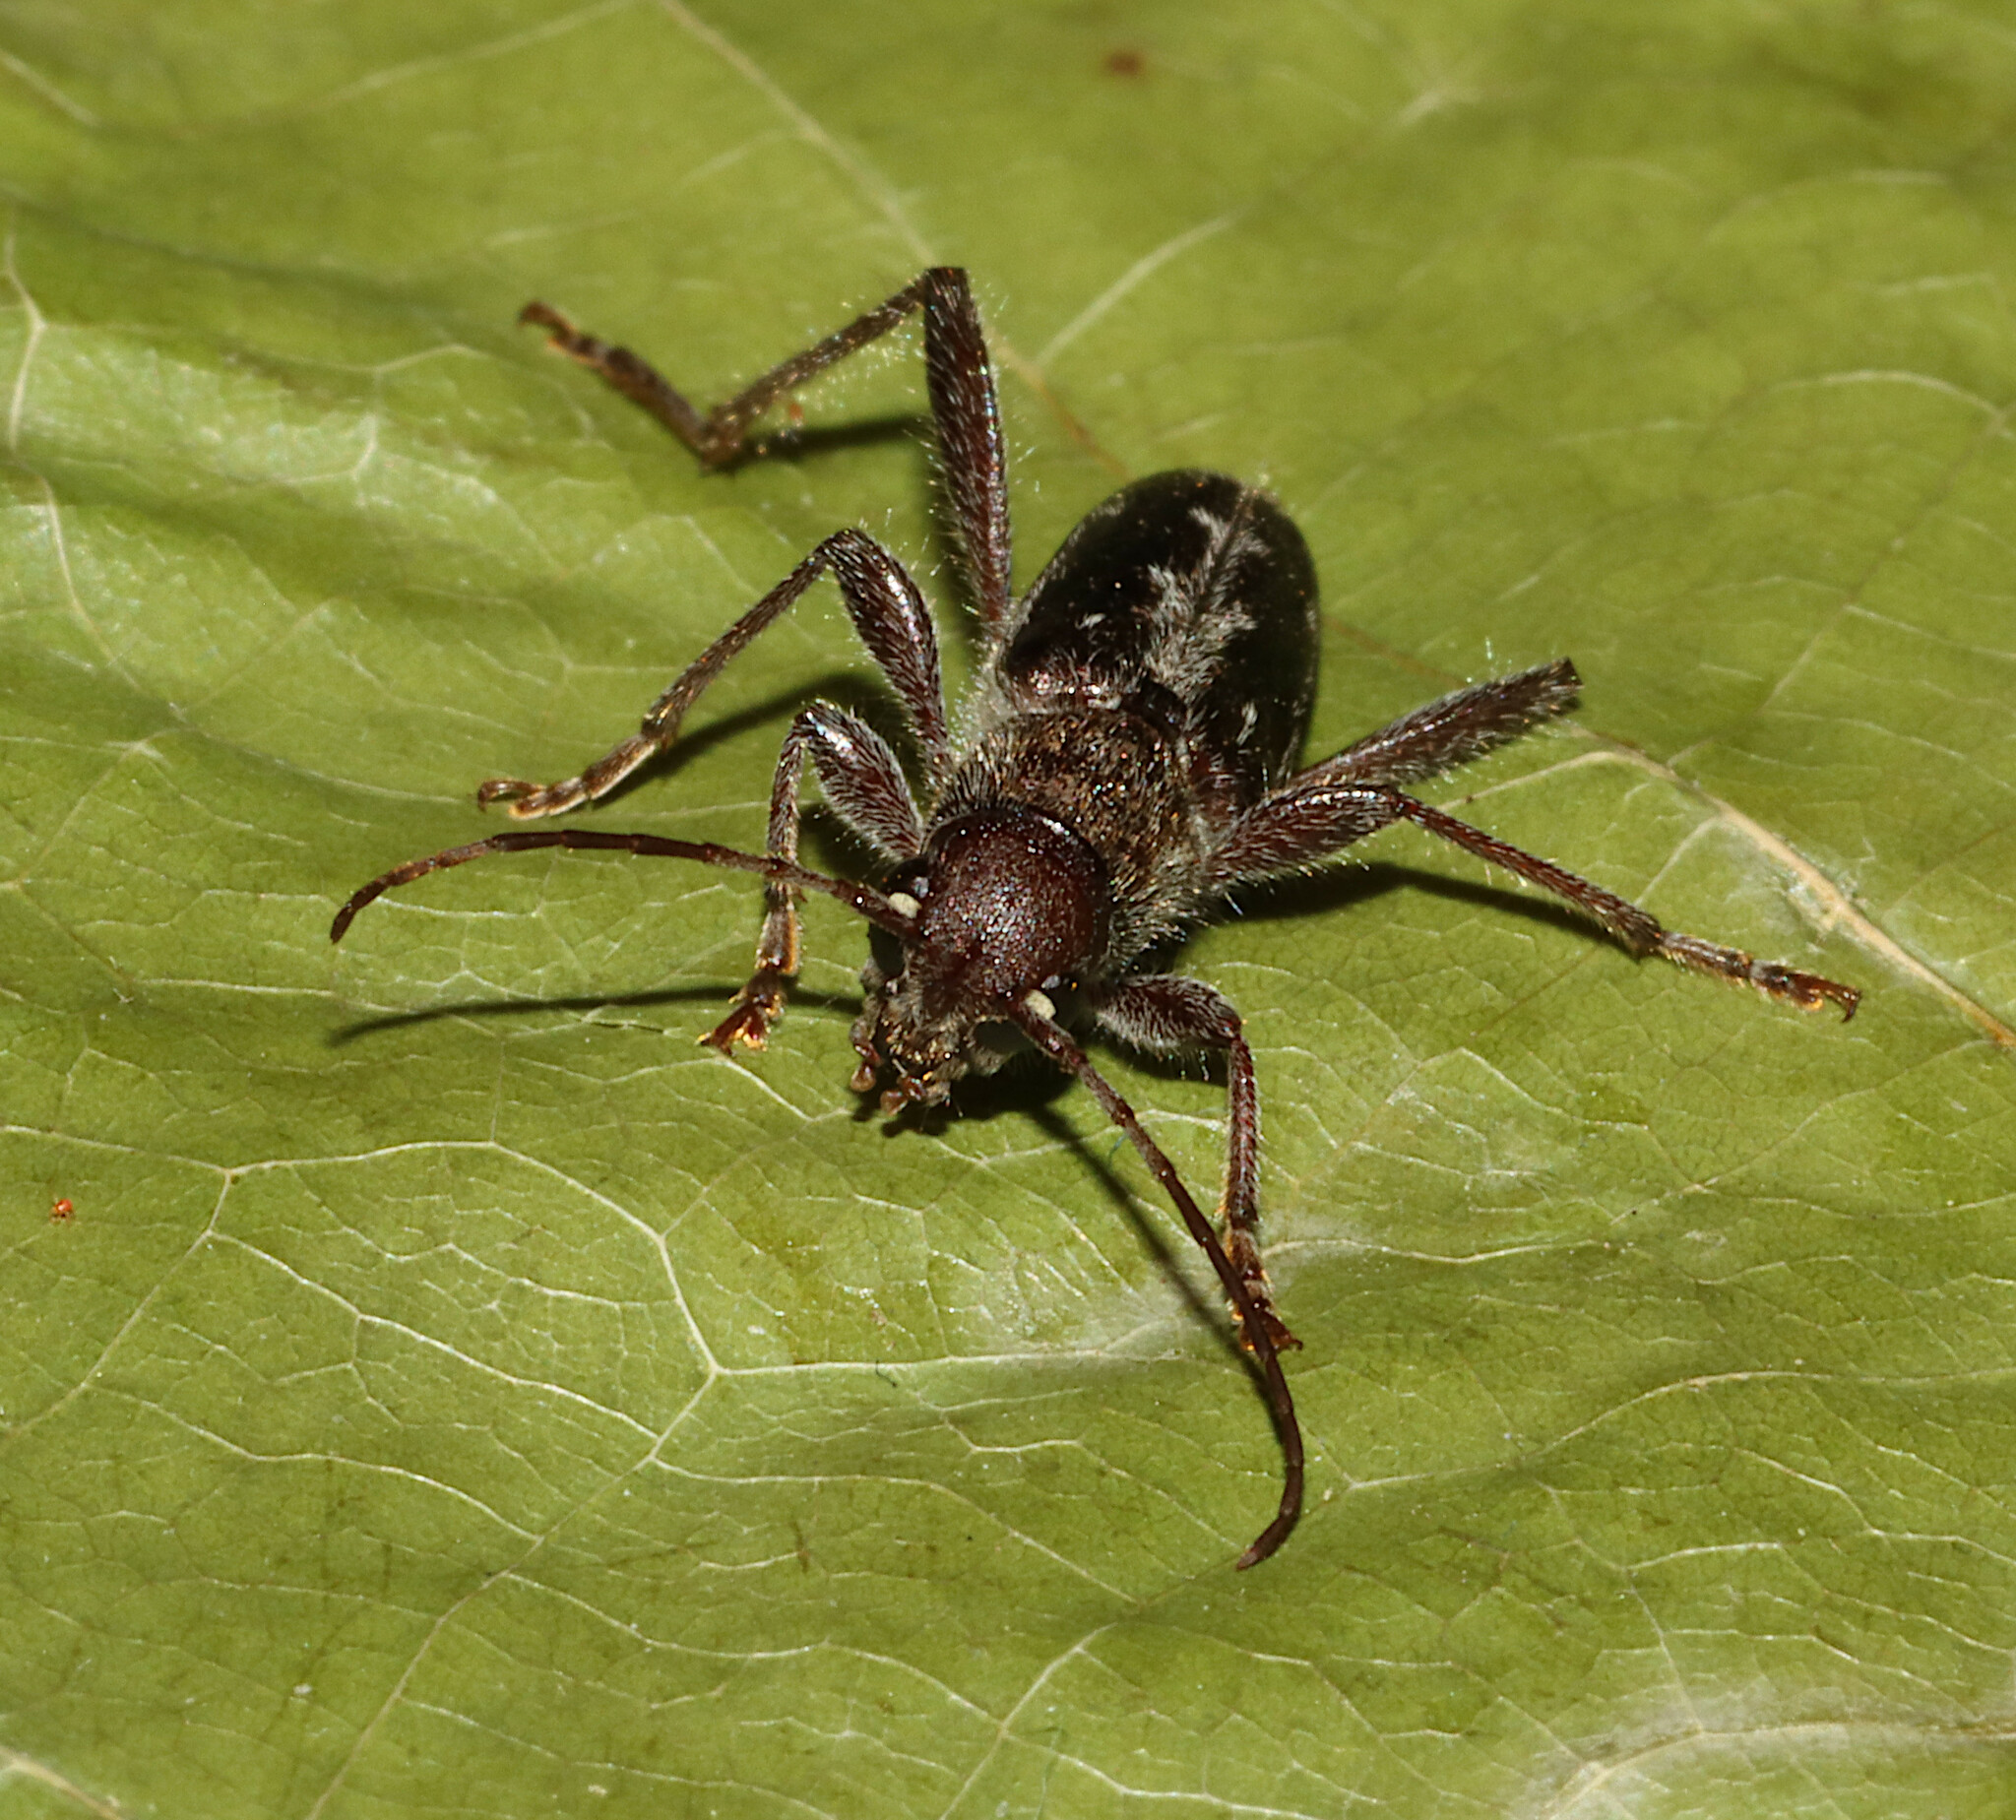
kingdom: Animalia
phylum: Arthropoda
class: Insecta
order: Coleoptera
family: Cerambycidae
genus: Xylotrechus
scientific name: Xylotrechus sagittatus
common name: Arrowhead borer
